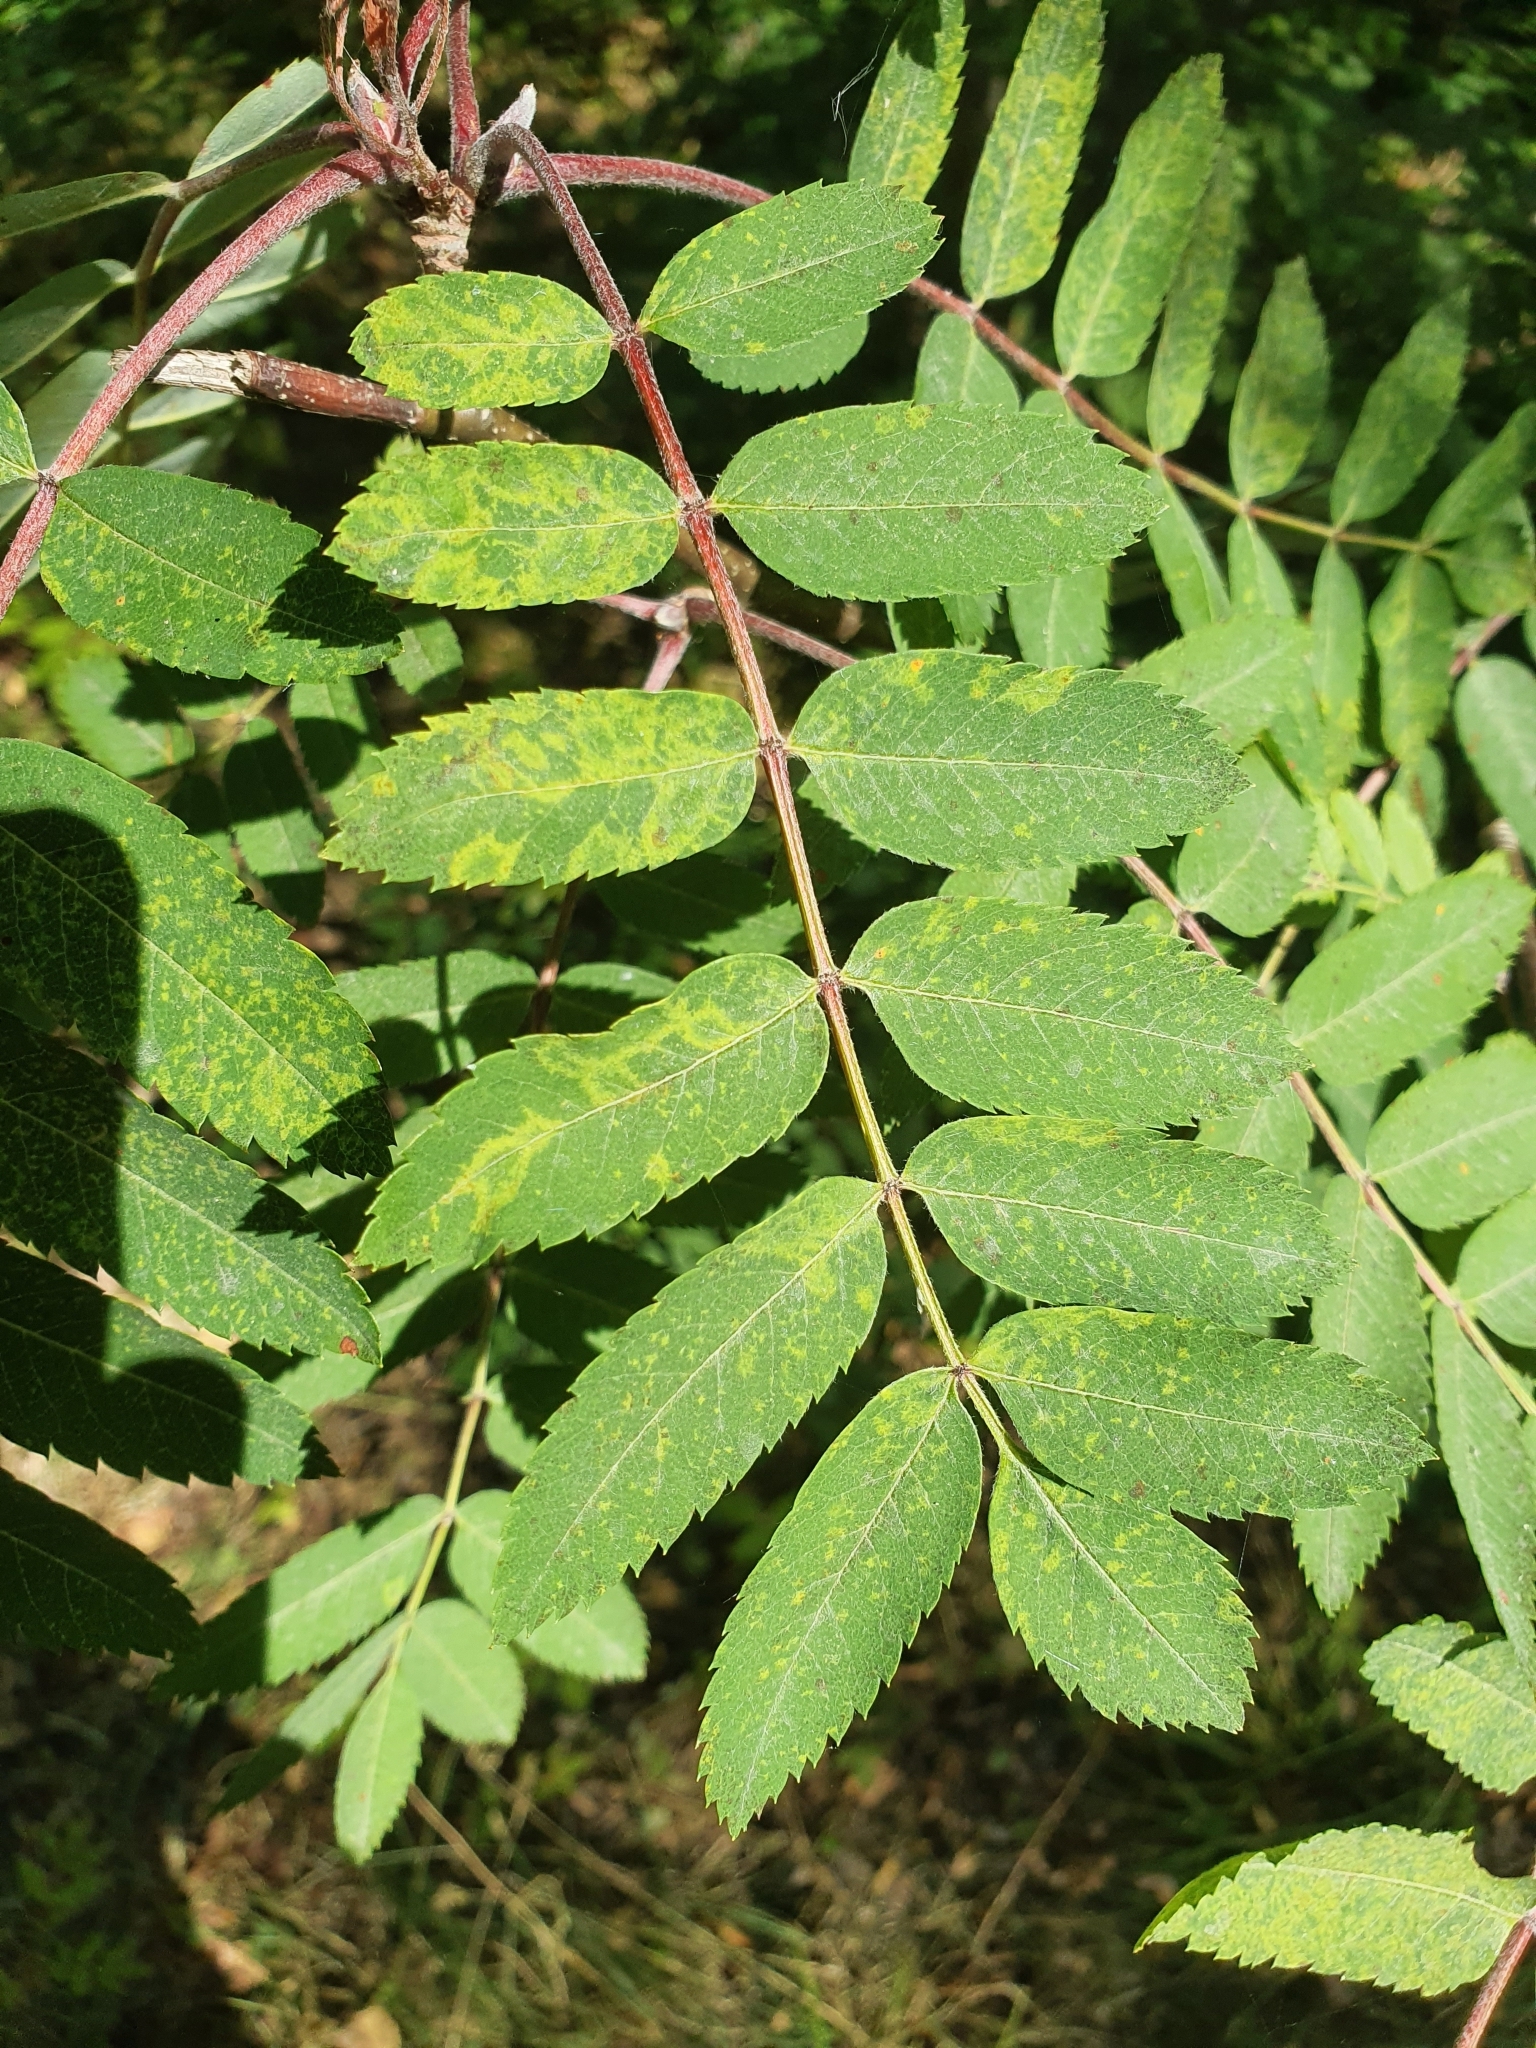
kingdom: Viruses
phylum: Negarnaviricota
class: Ellioviricetes
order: Bunyavirales
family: Fimoviridae
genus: Emaravirus
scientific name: Emaravirus sorbi
